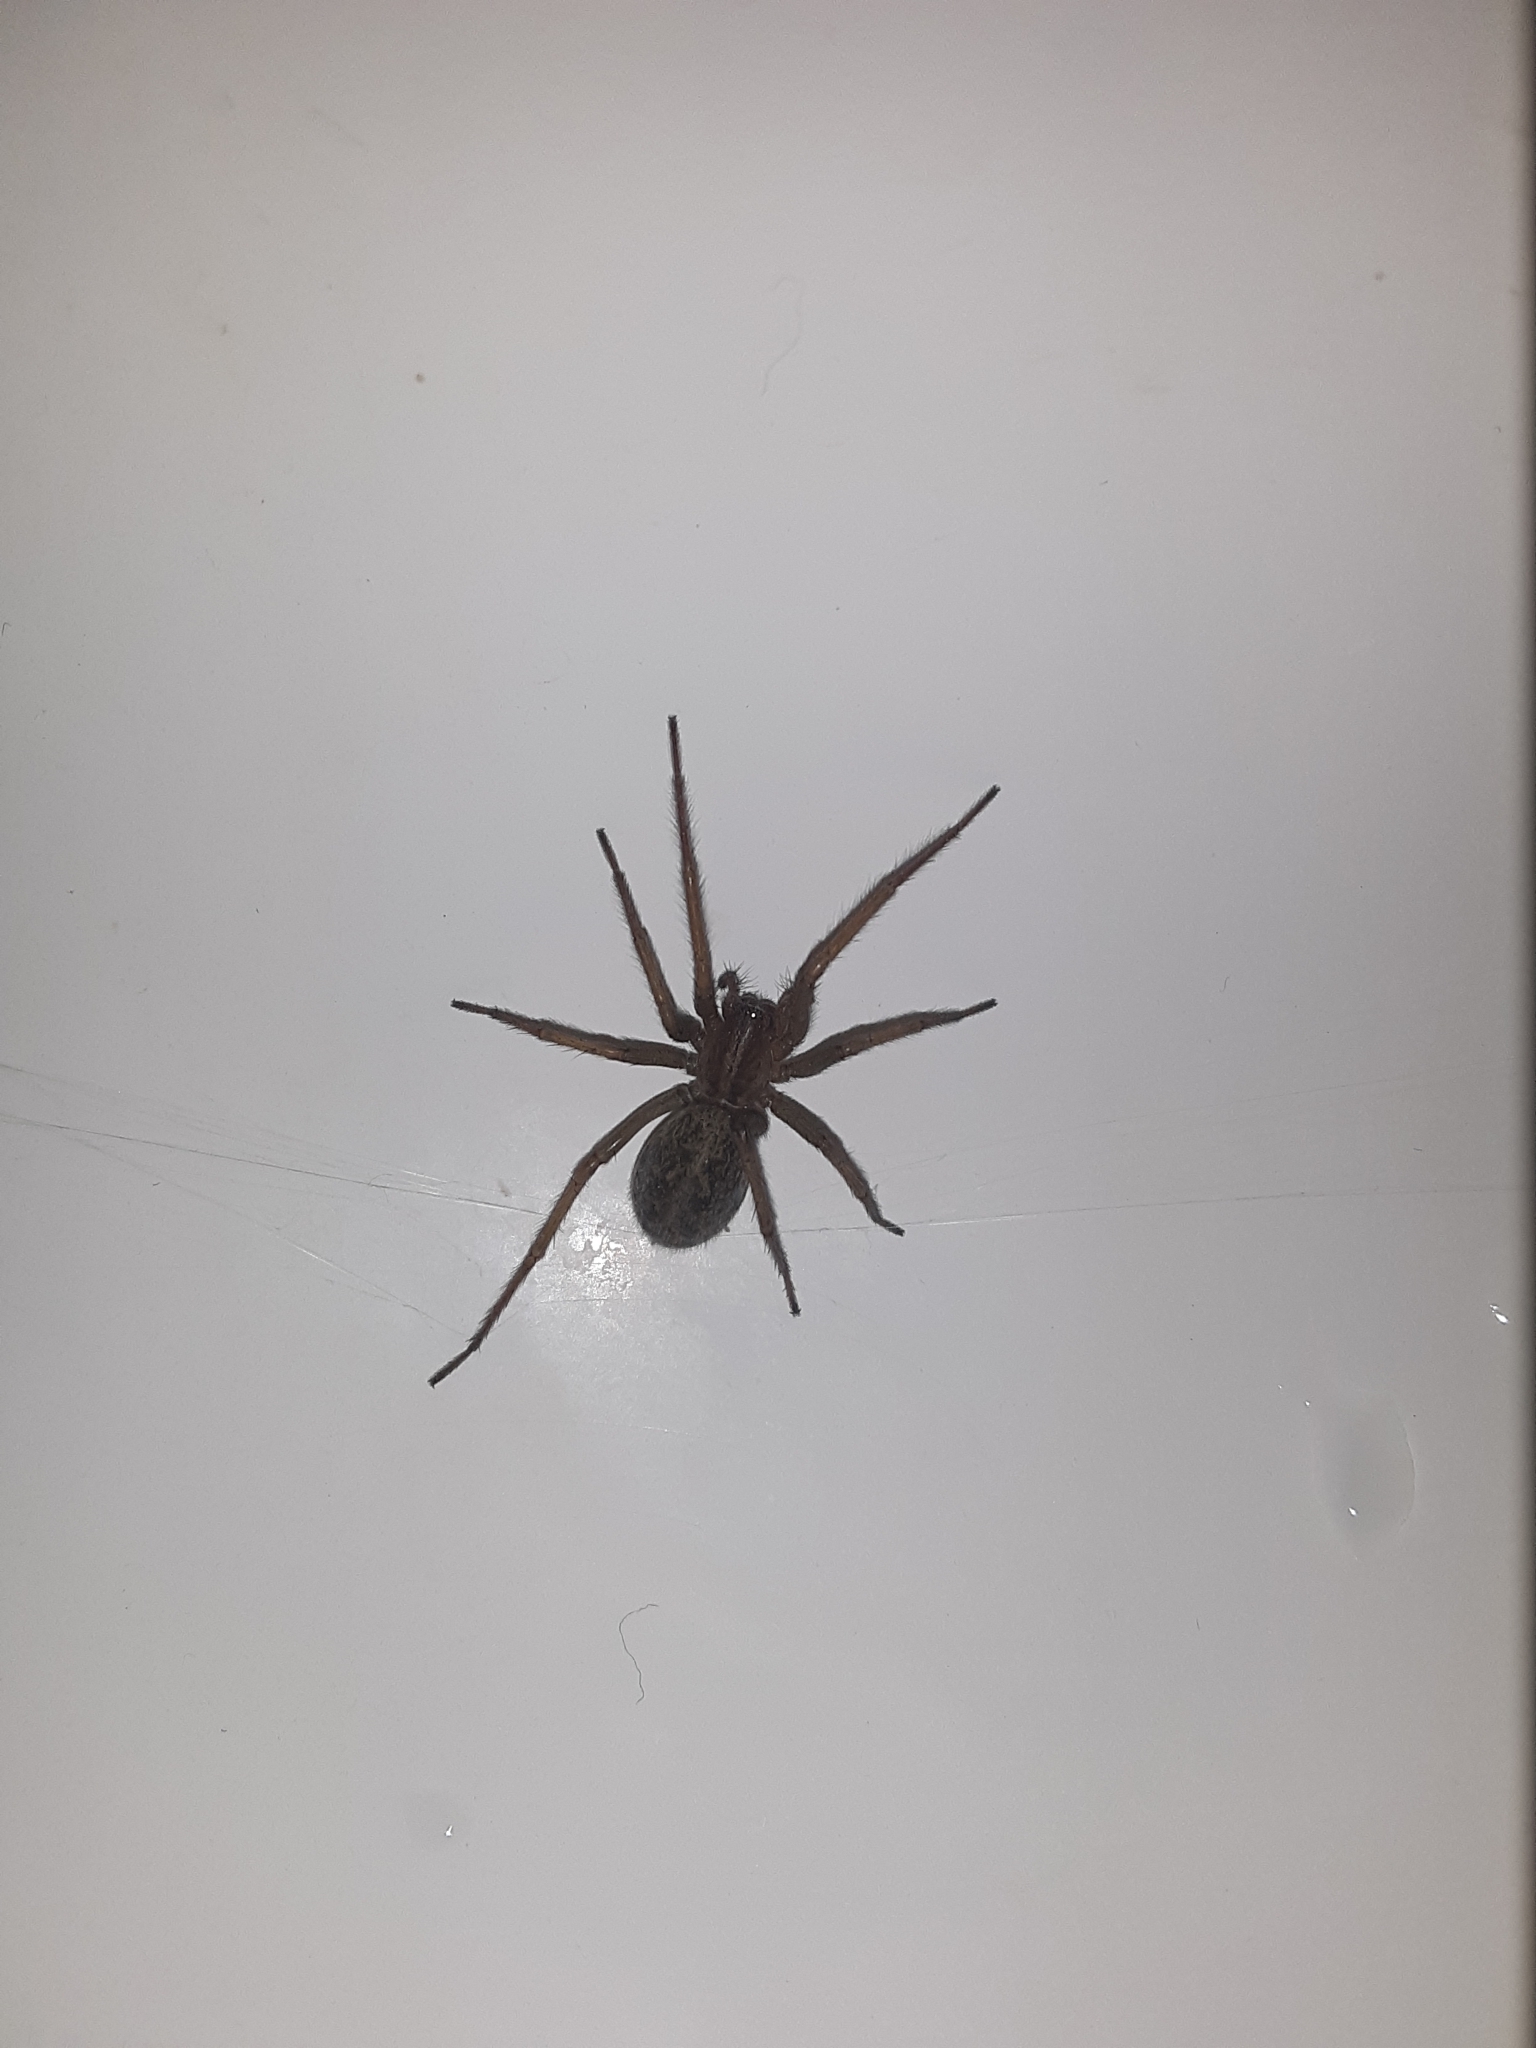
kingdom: Animalia
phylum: Arthropoda
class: Arachnida
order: Araneae
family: Agelenidae
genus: Eratigena
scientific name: Eratigena agrestis
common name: Hobo spider
